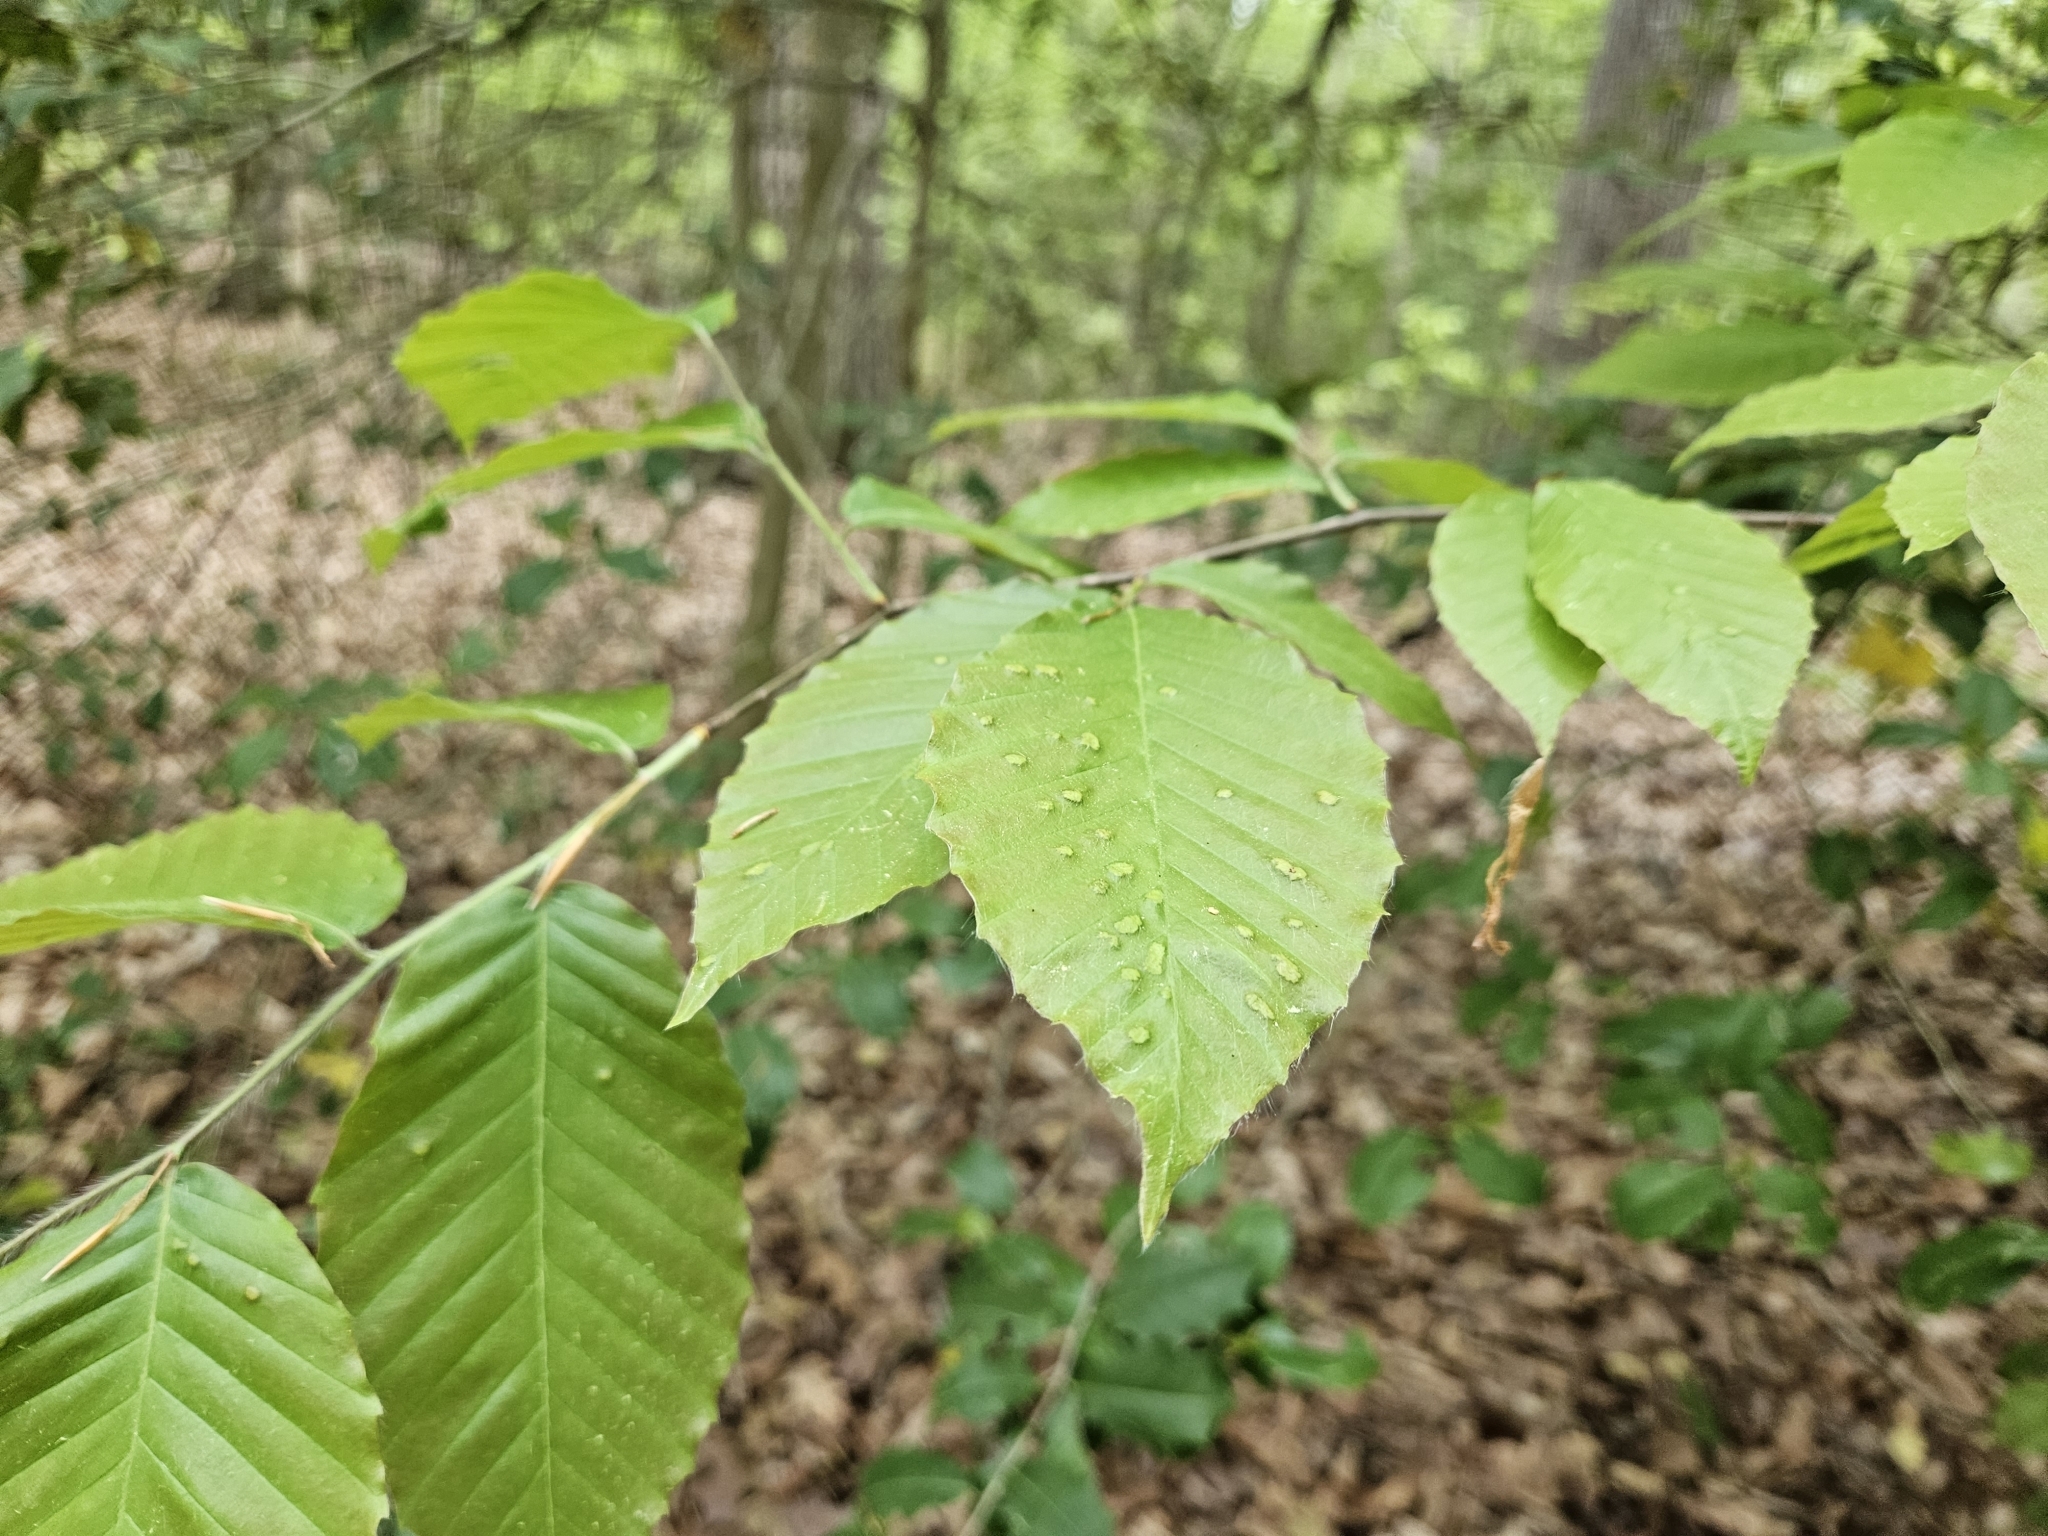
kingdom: Animalia
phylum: Arthropoda
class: Arachnida
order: Trombidiformes
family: Eriophyidae
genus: Acalitus
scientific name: Acalitus
